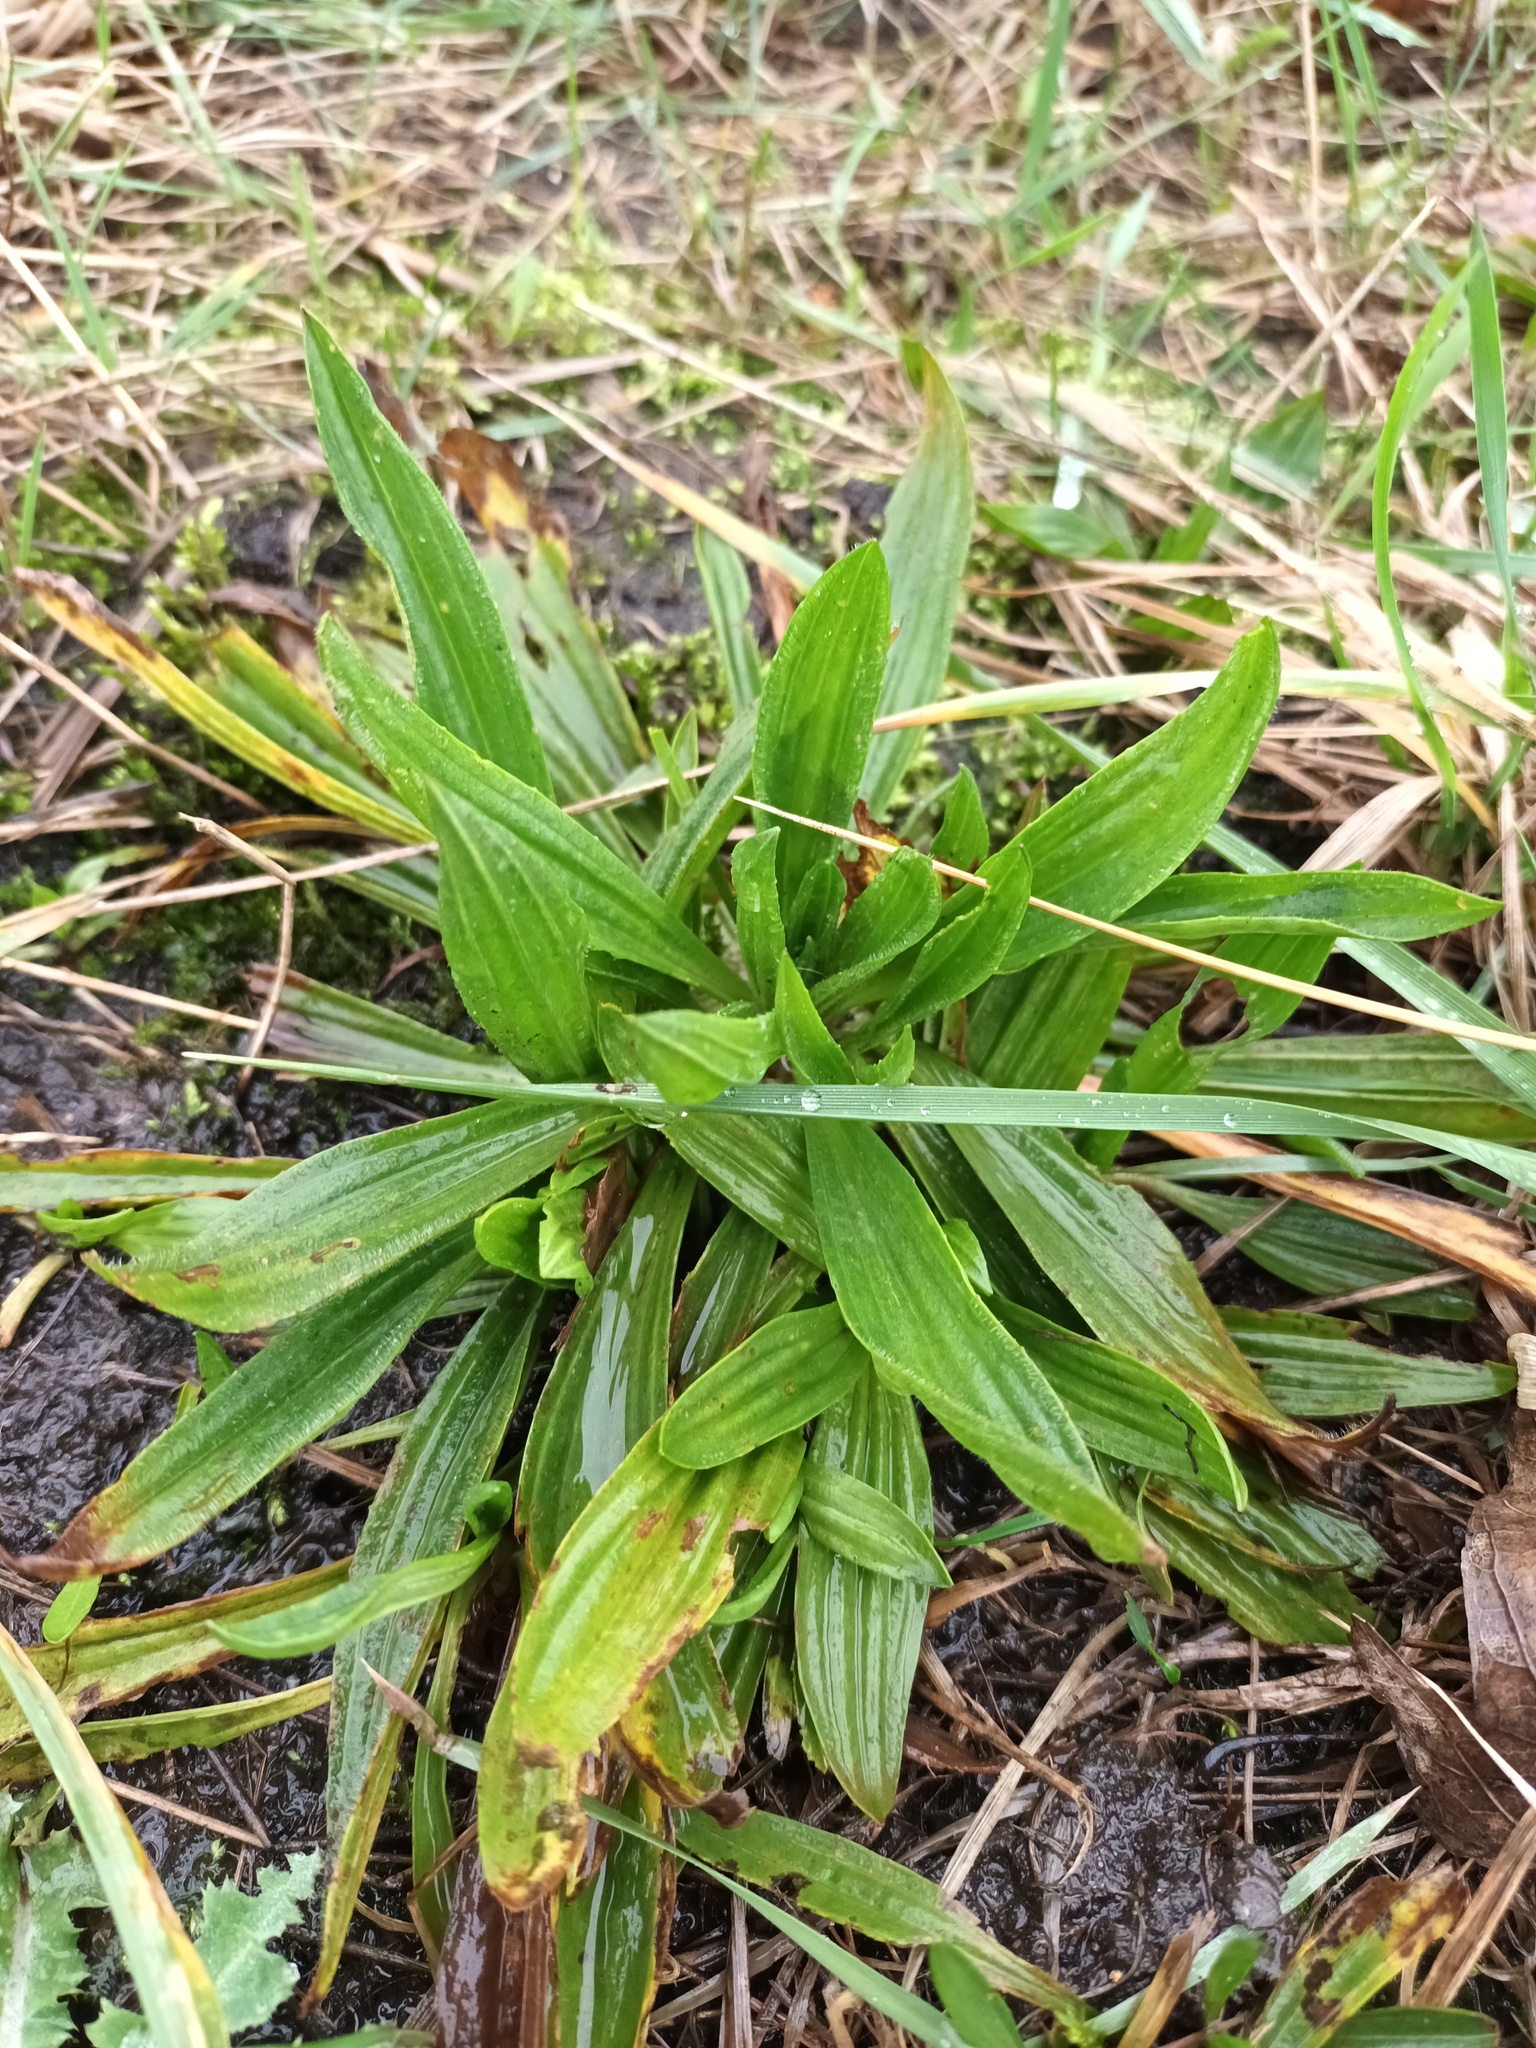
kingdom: Plantae
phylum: Tracheophyta
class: Magnoliopsida
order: Lamiales
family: Plantaginaceae
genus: Plantago
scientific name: Plantago lanceolata
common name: Ribwort plantain
